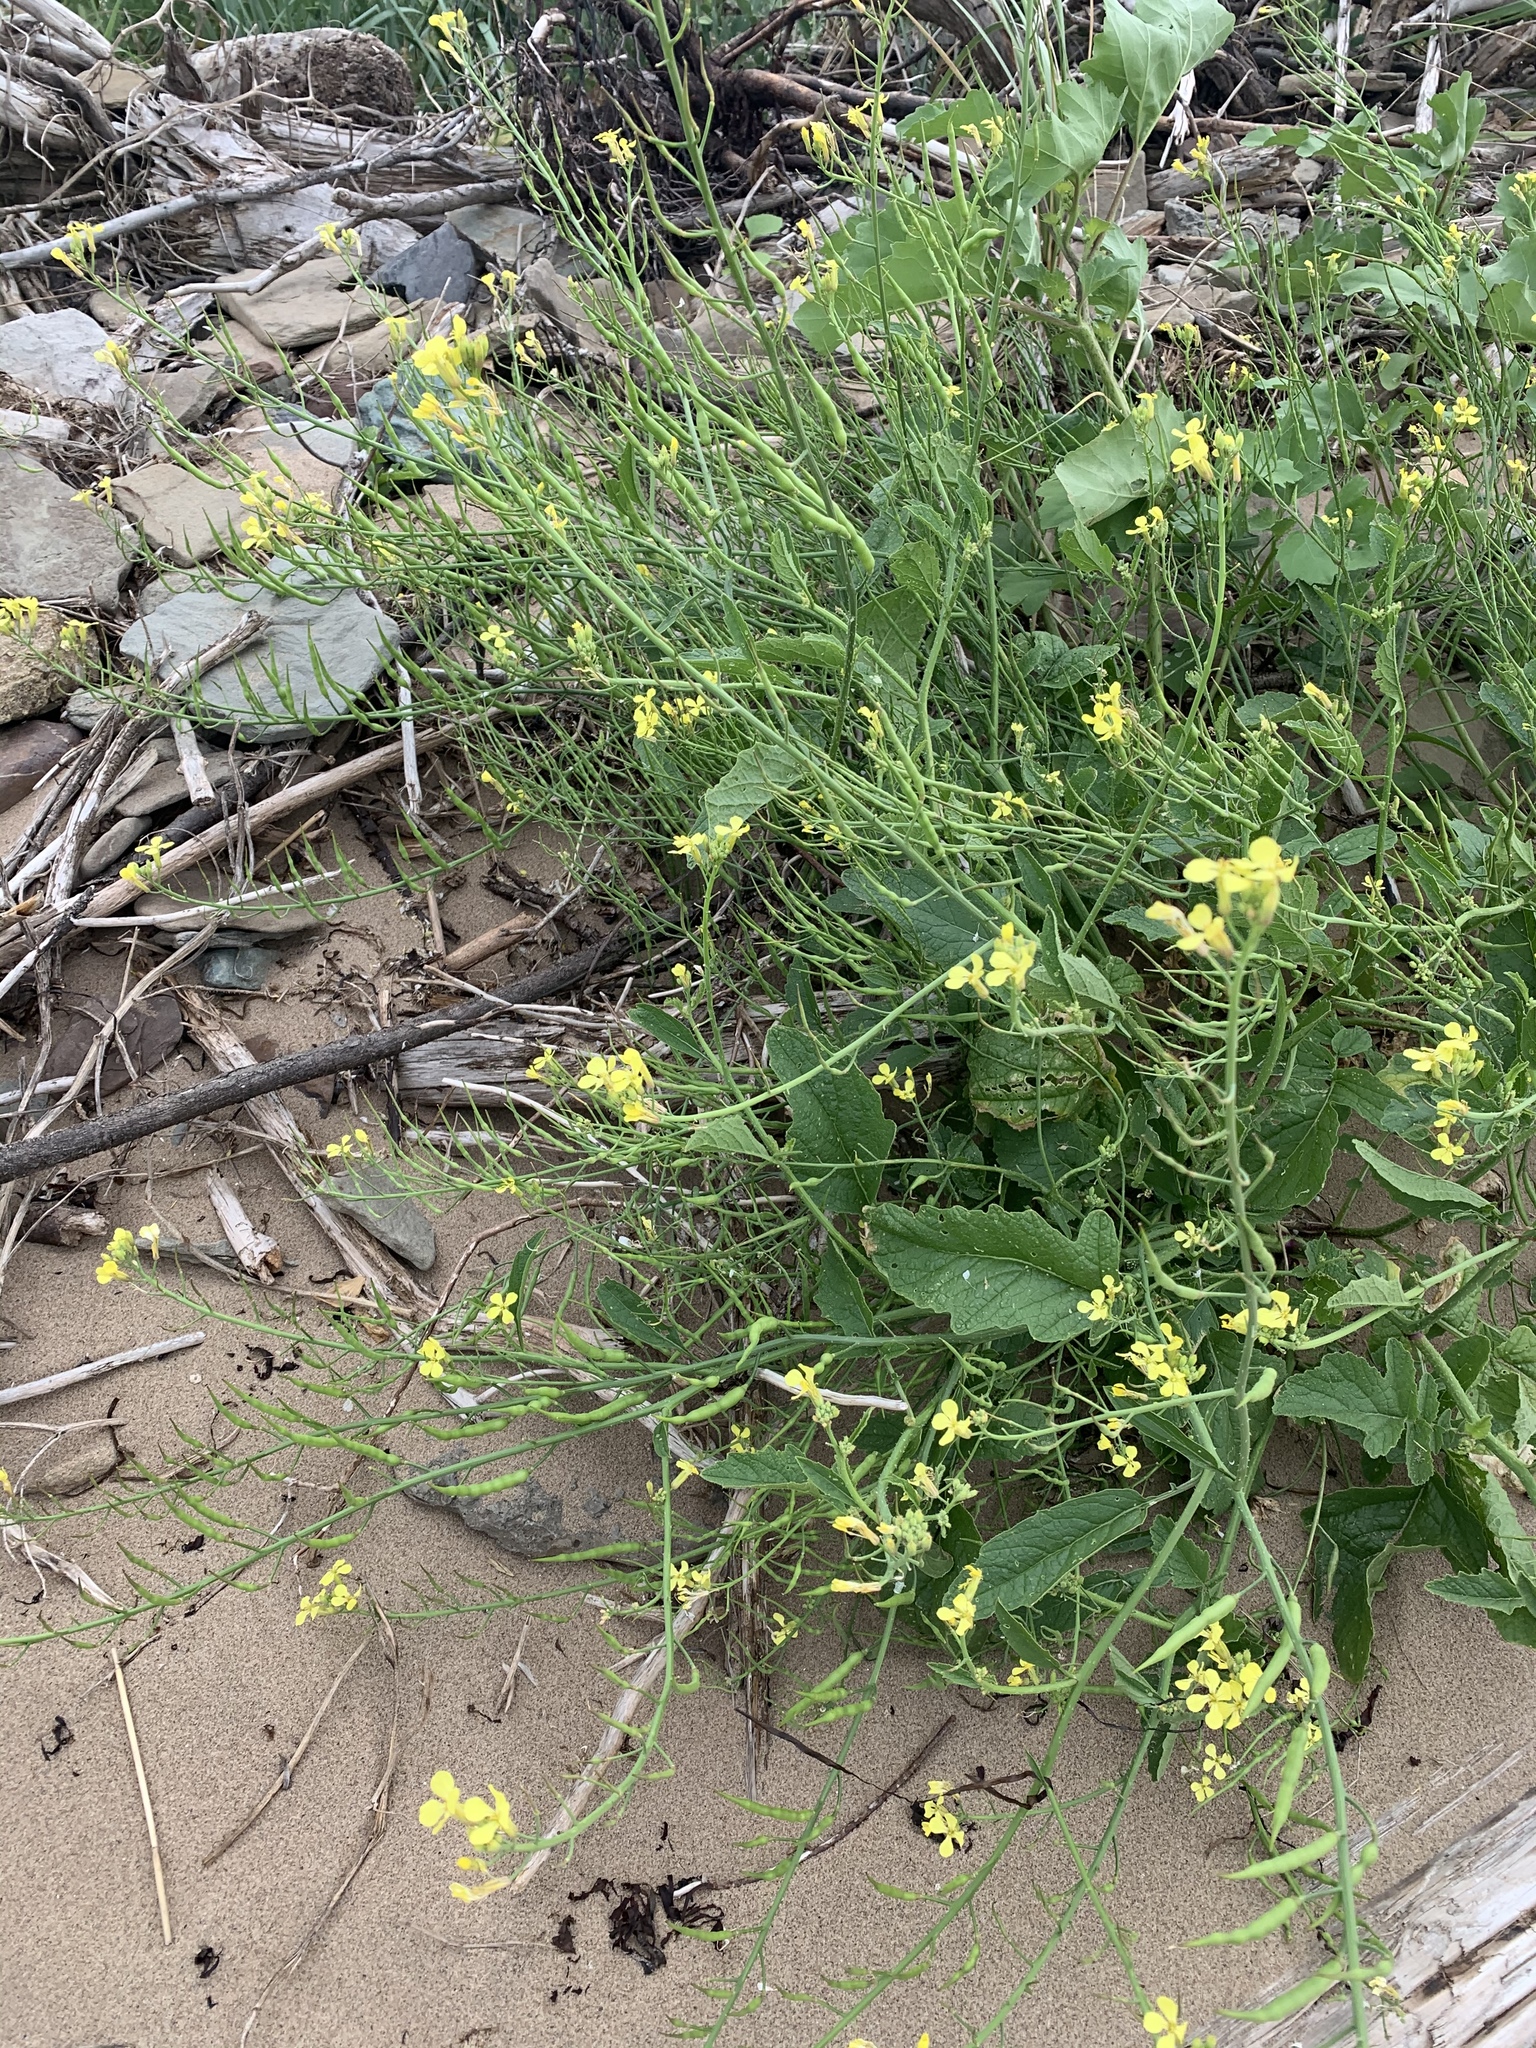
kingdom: Plantae
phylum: Tracheophyta
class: Magnoliopsida
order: Brassicales
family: Brassicaceae
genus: Raphanus
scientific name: Raphanus raphanistrum
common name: Wild radish
